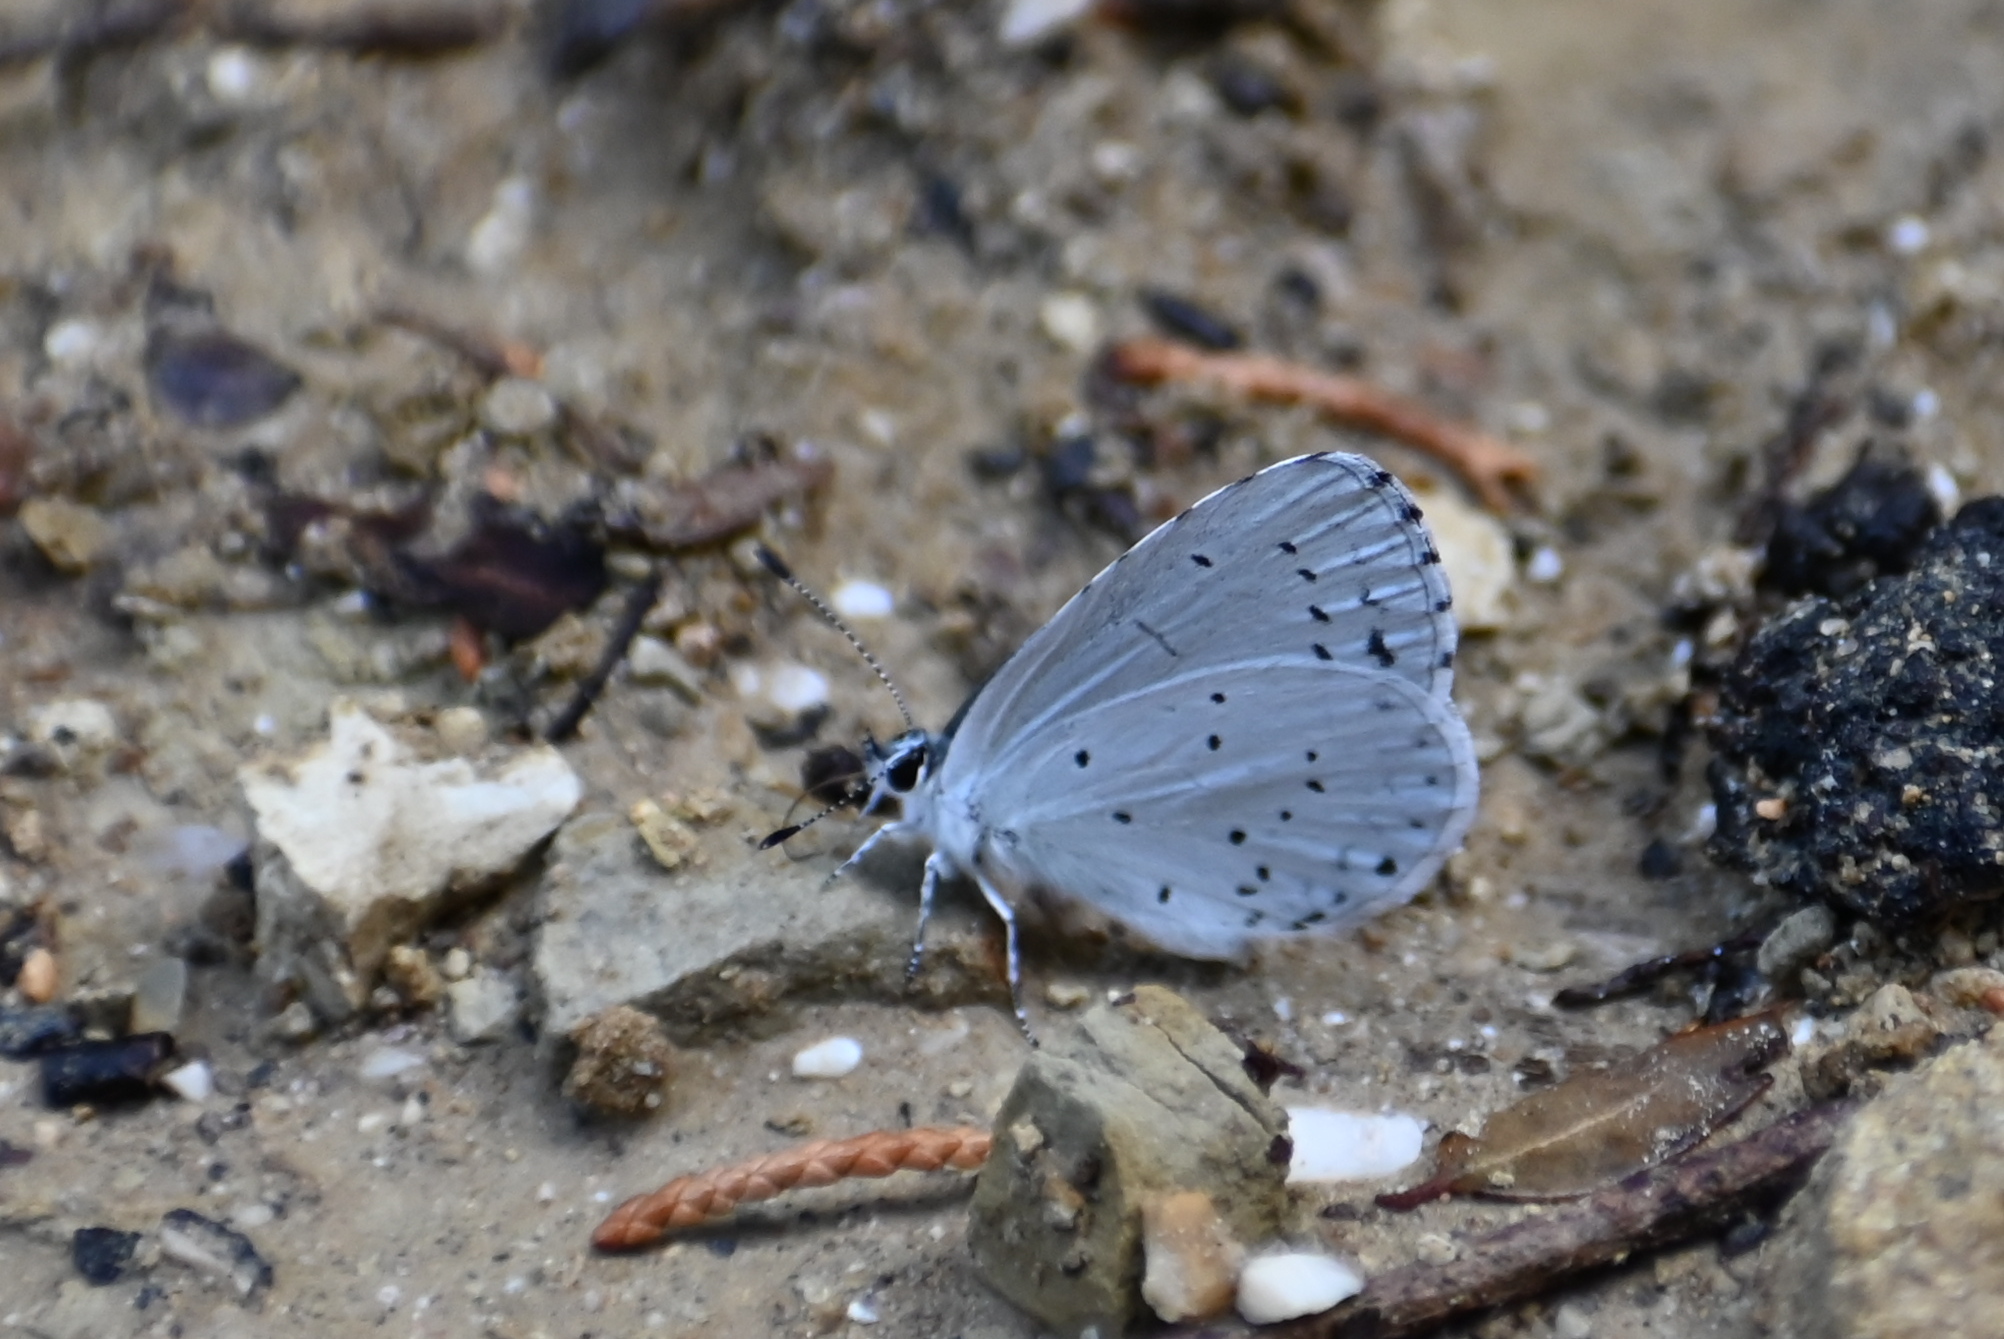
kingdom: Animalia
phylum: Arthropoda
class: Insecta
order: Lepidoptera
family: Lycaenidae
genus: Celastrina
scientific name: Celastrina argiolus
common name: Holly blue
